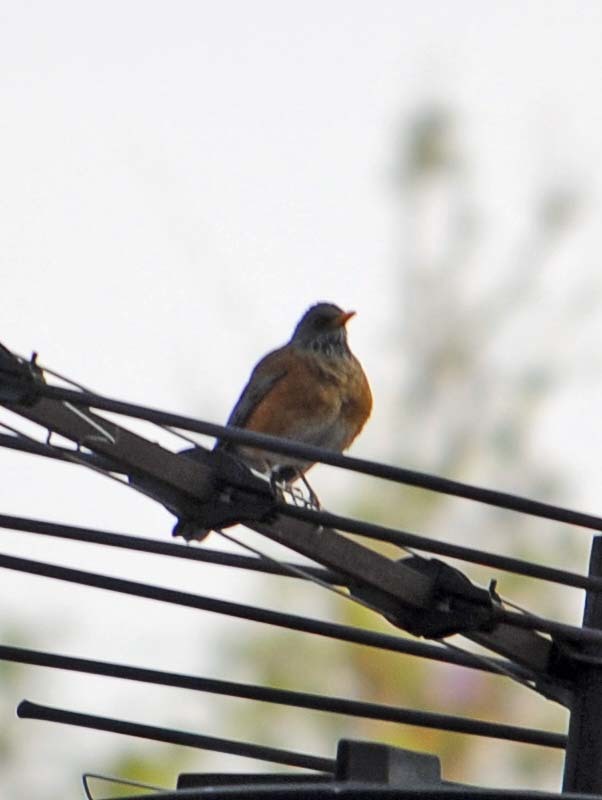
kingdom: Animalia
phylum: Chordata
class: Aves
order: Passeriformes
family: Turdidae
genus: Turdus
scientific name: Turdus rufopalliatus
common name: Rufous-backed robin
